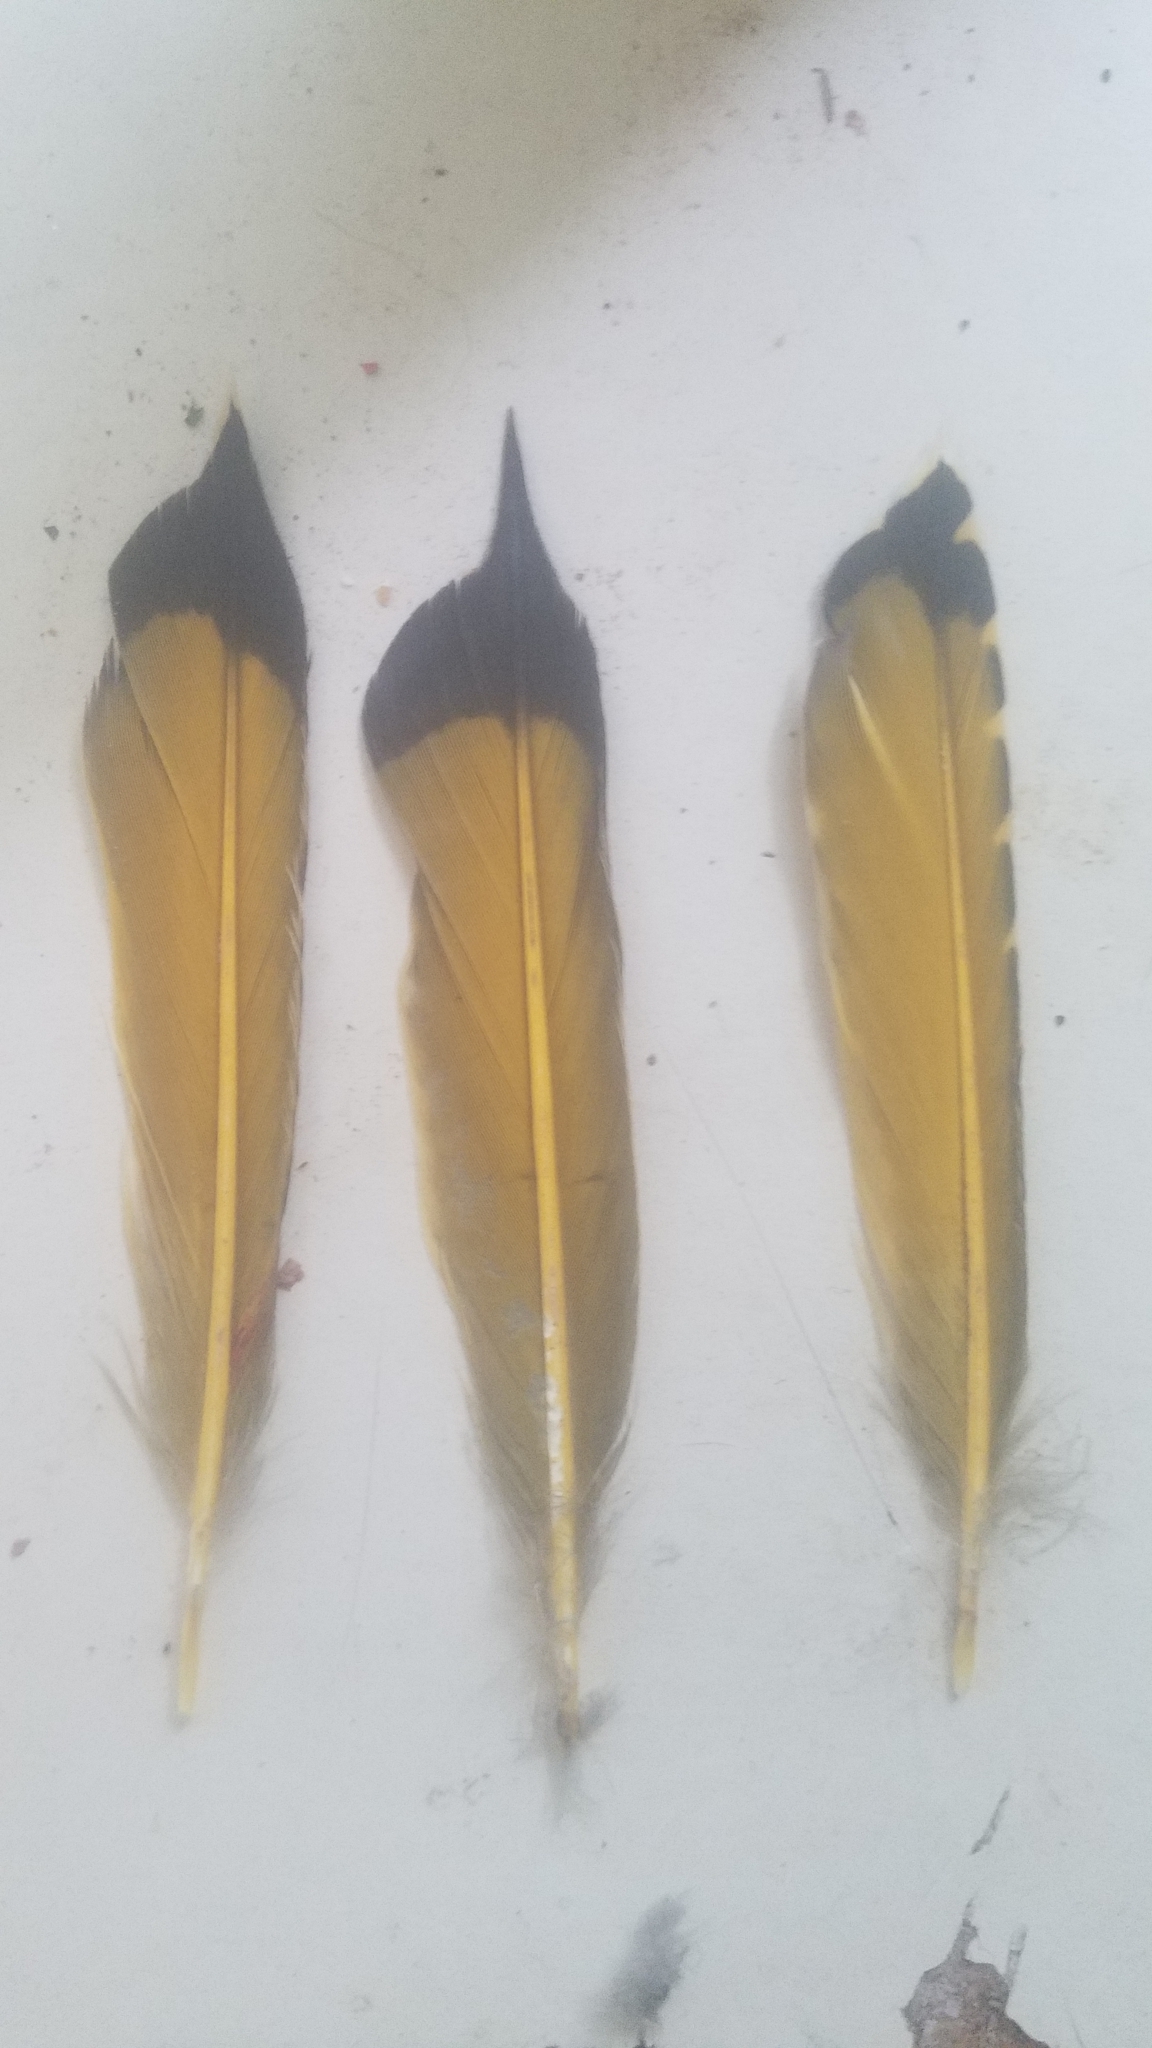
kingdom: Animalia
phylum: Chordata
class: Aves
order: Piciformes
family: Picidae
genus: Colaptes
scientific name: Colaptes auratus
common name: Northern flicker
